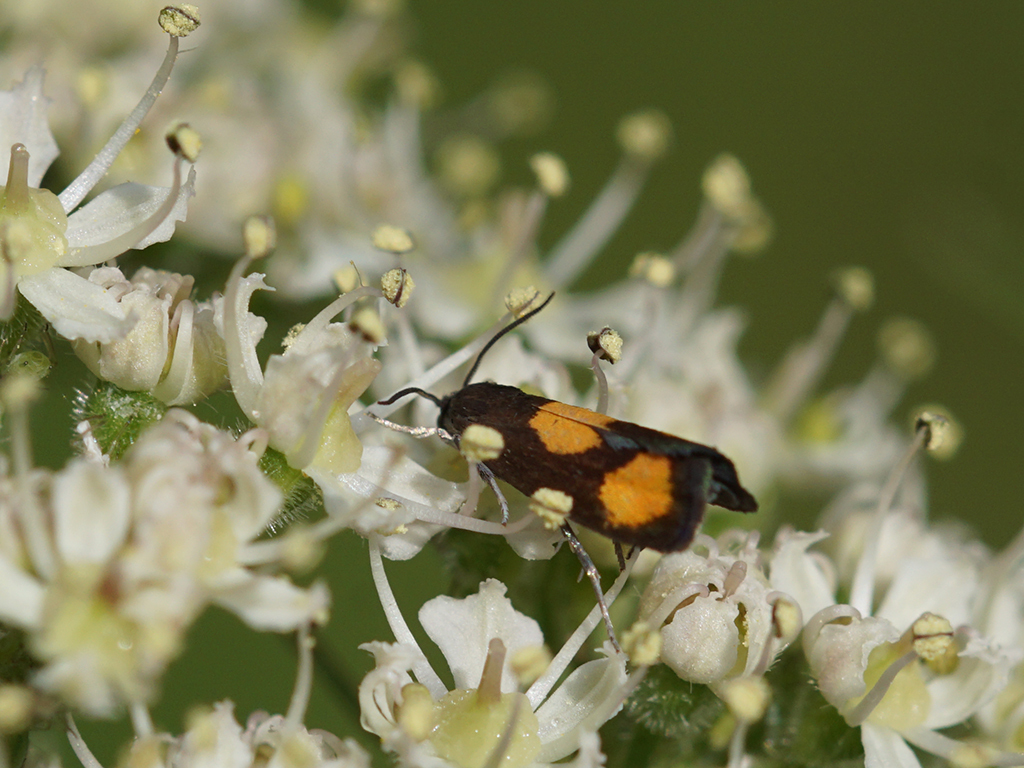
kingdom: Animalia
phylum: Arthropoda
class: Insecta
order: Lepidoptera
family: Tortricidae
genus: Pammene
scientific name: Pammene aurana
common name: Orange-spot piercer
